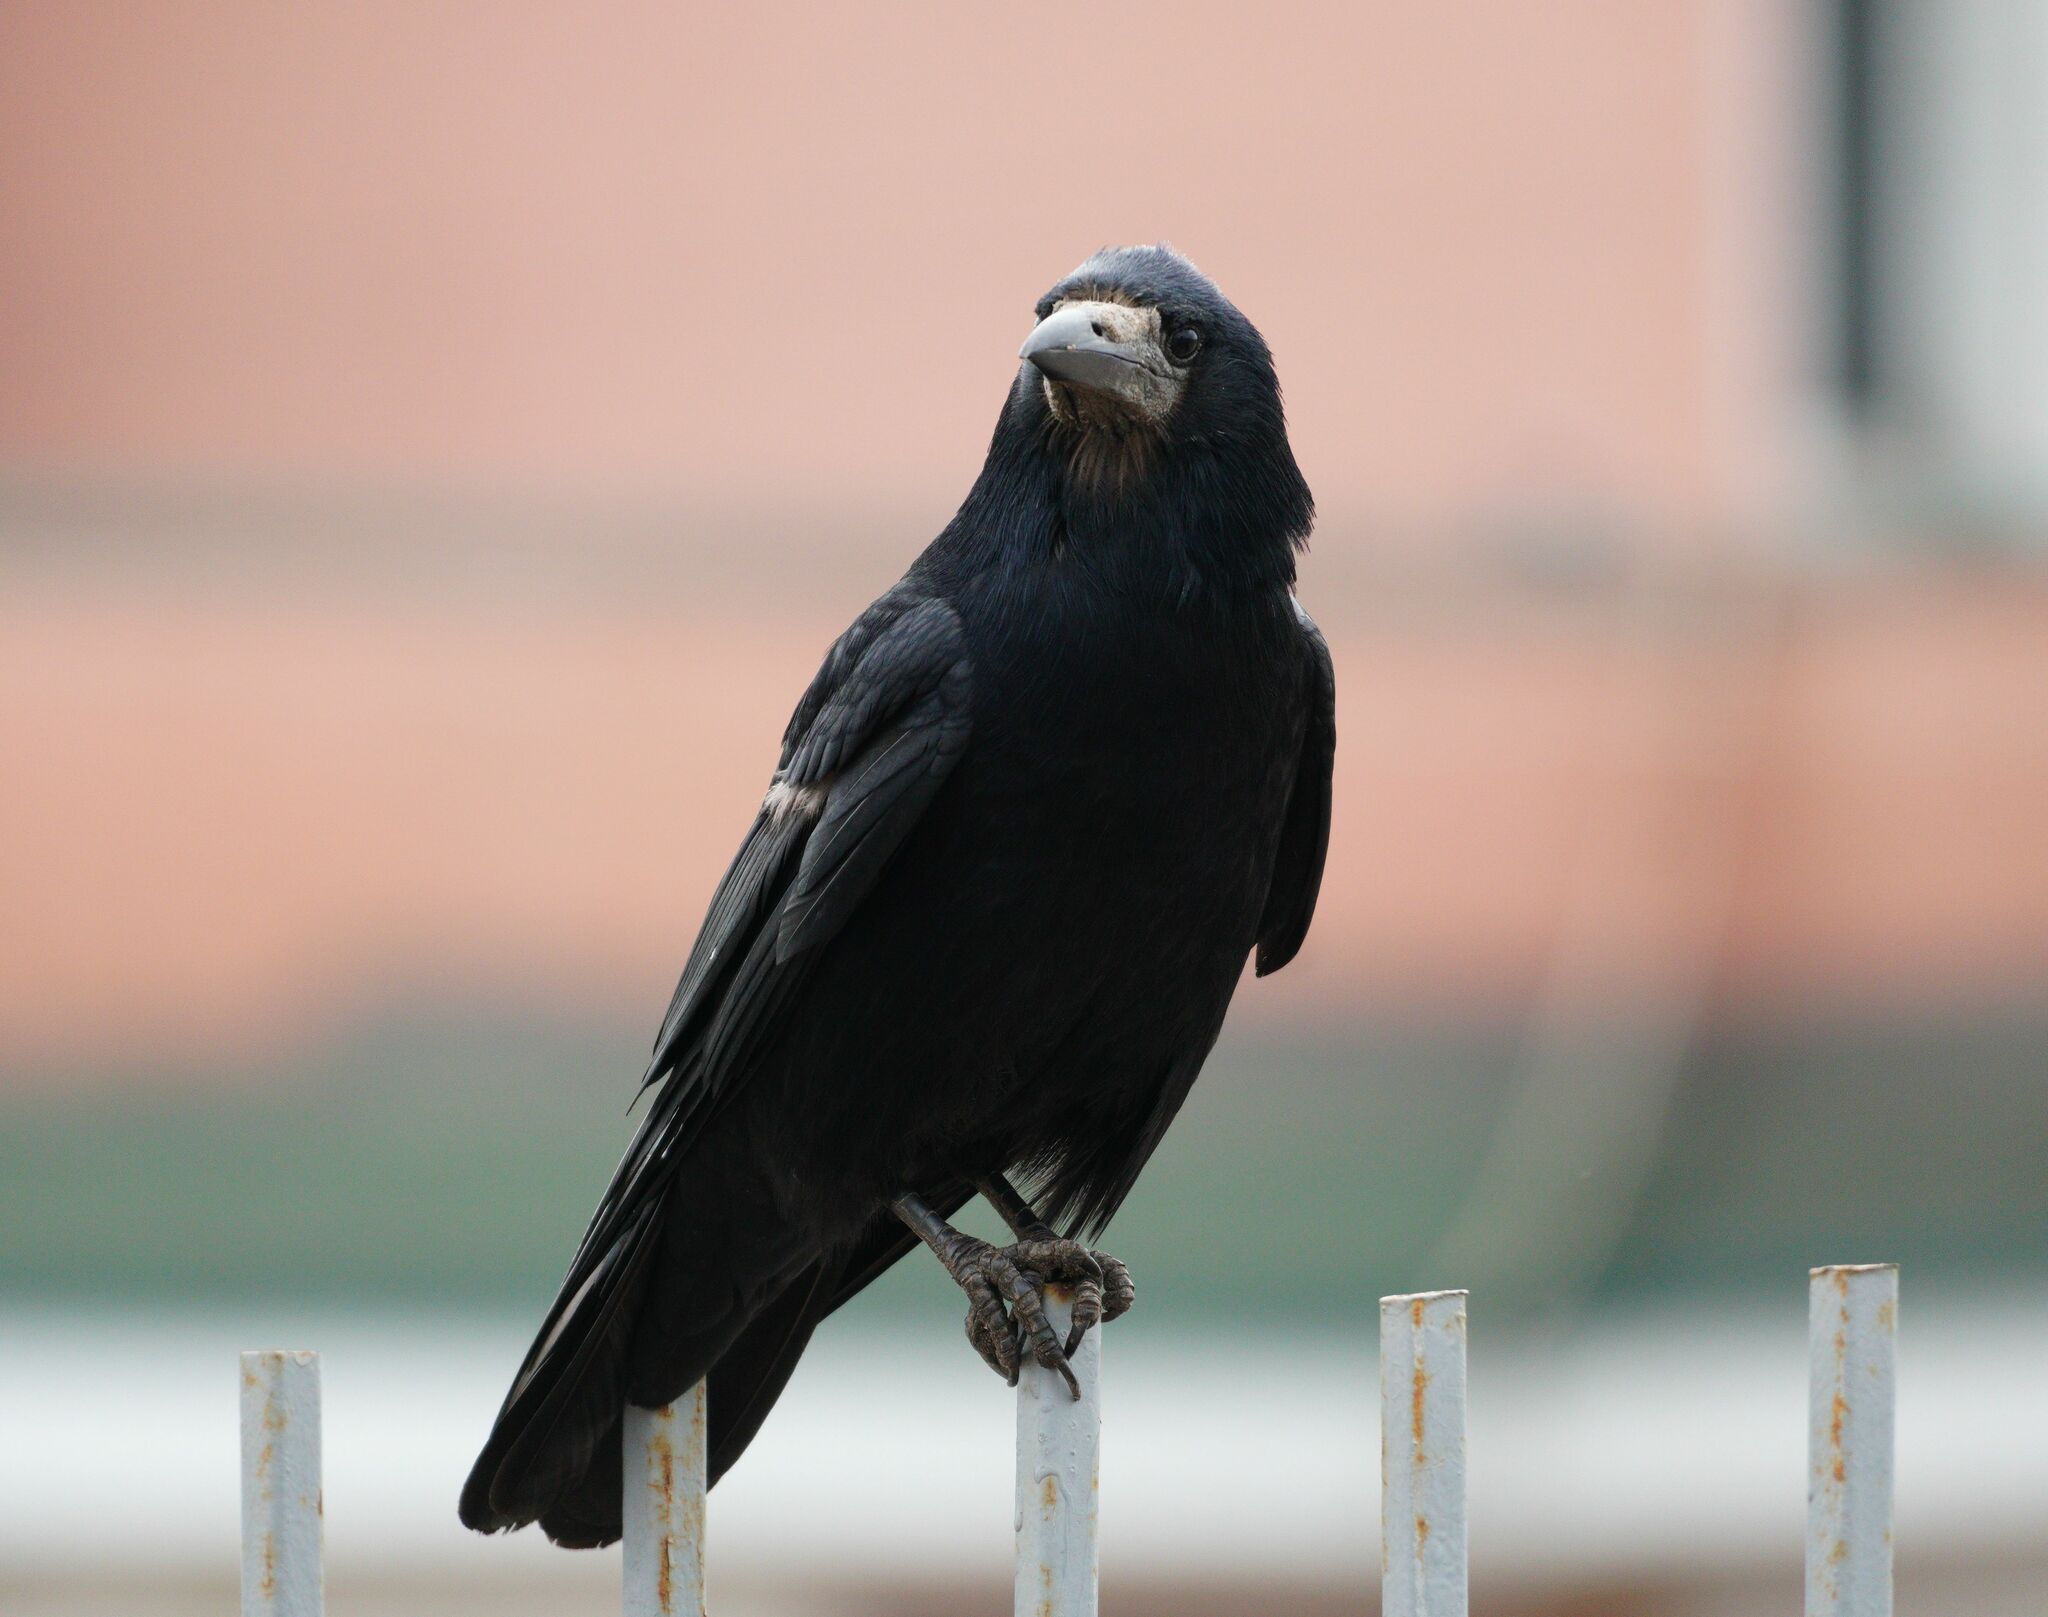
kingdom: Animalia
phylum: Chordata
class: Aves
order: Passeriformes
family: Corvidae
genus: Corvus
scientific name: Corvus frugilegus
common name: Rook
